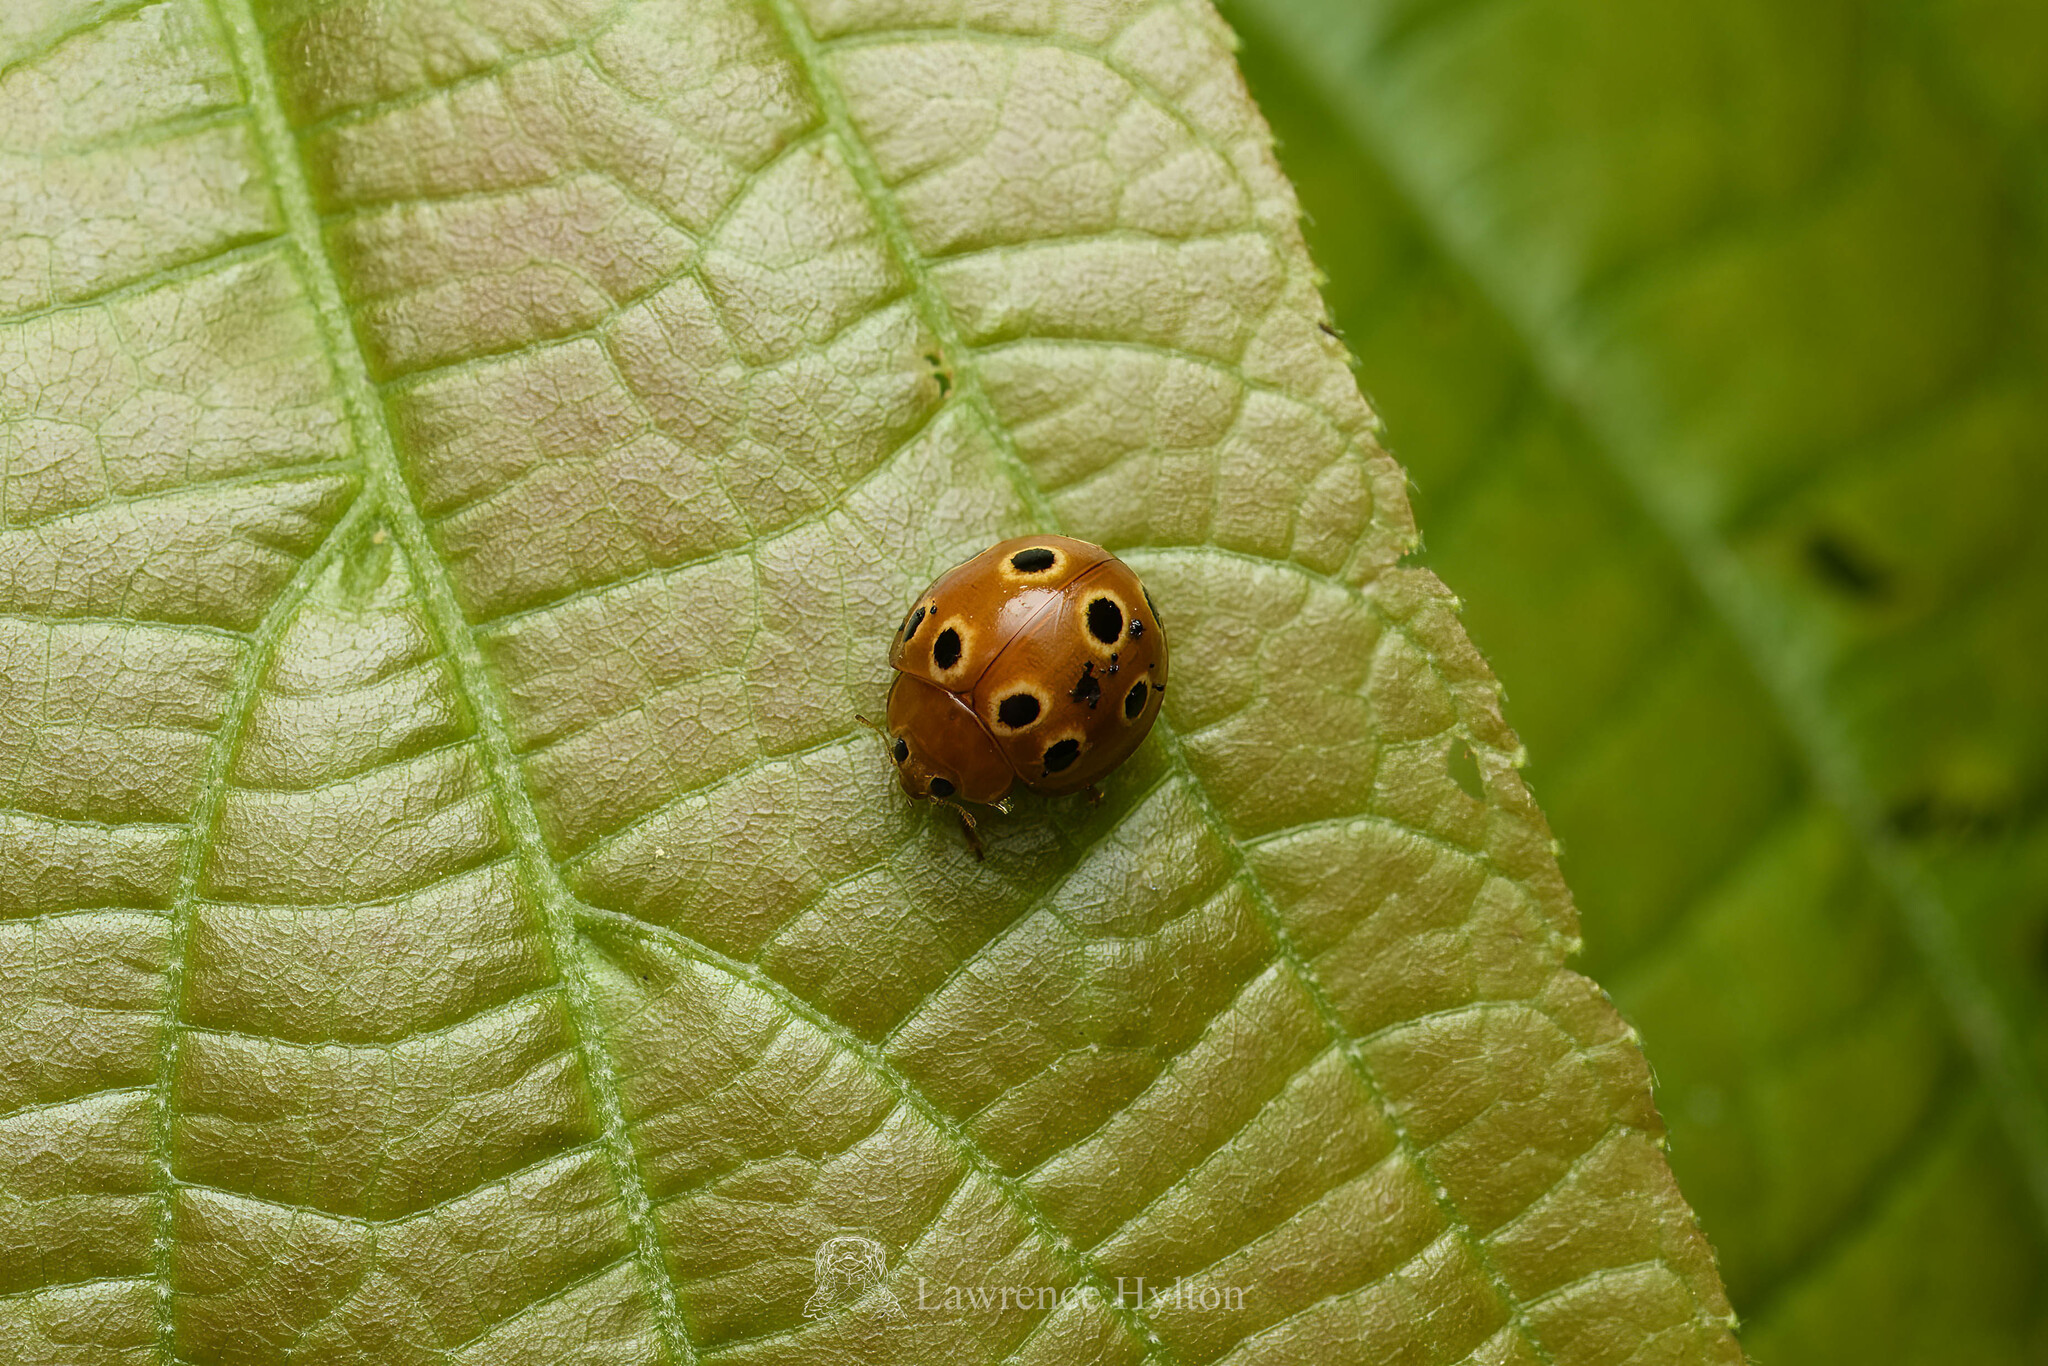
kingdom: Animalia
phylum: Arthropoda
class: Insecta
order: Coleoptera
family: Coccinellidae
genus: Microcaria
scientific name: Microcaria
